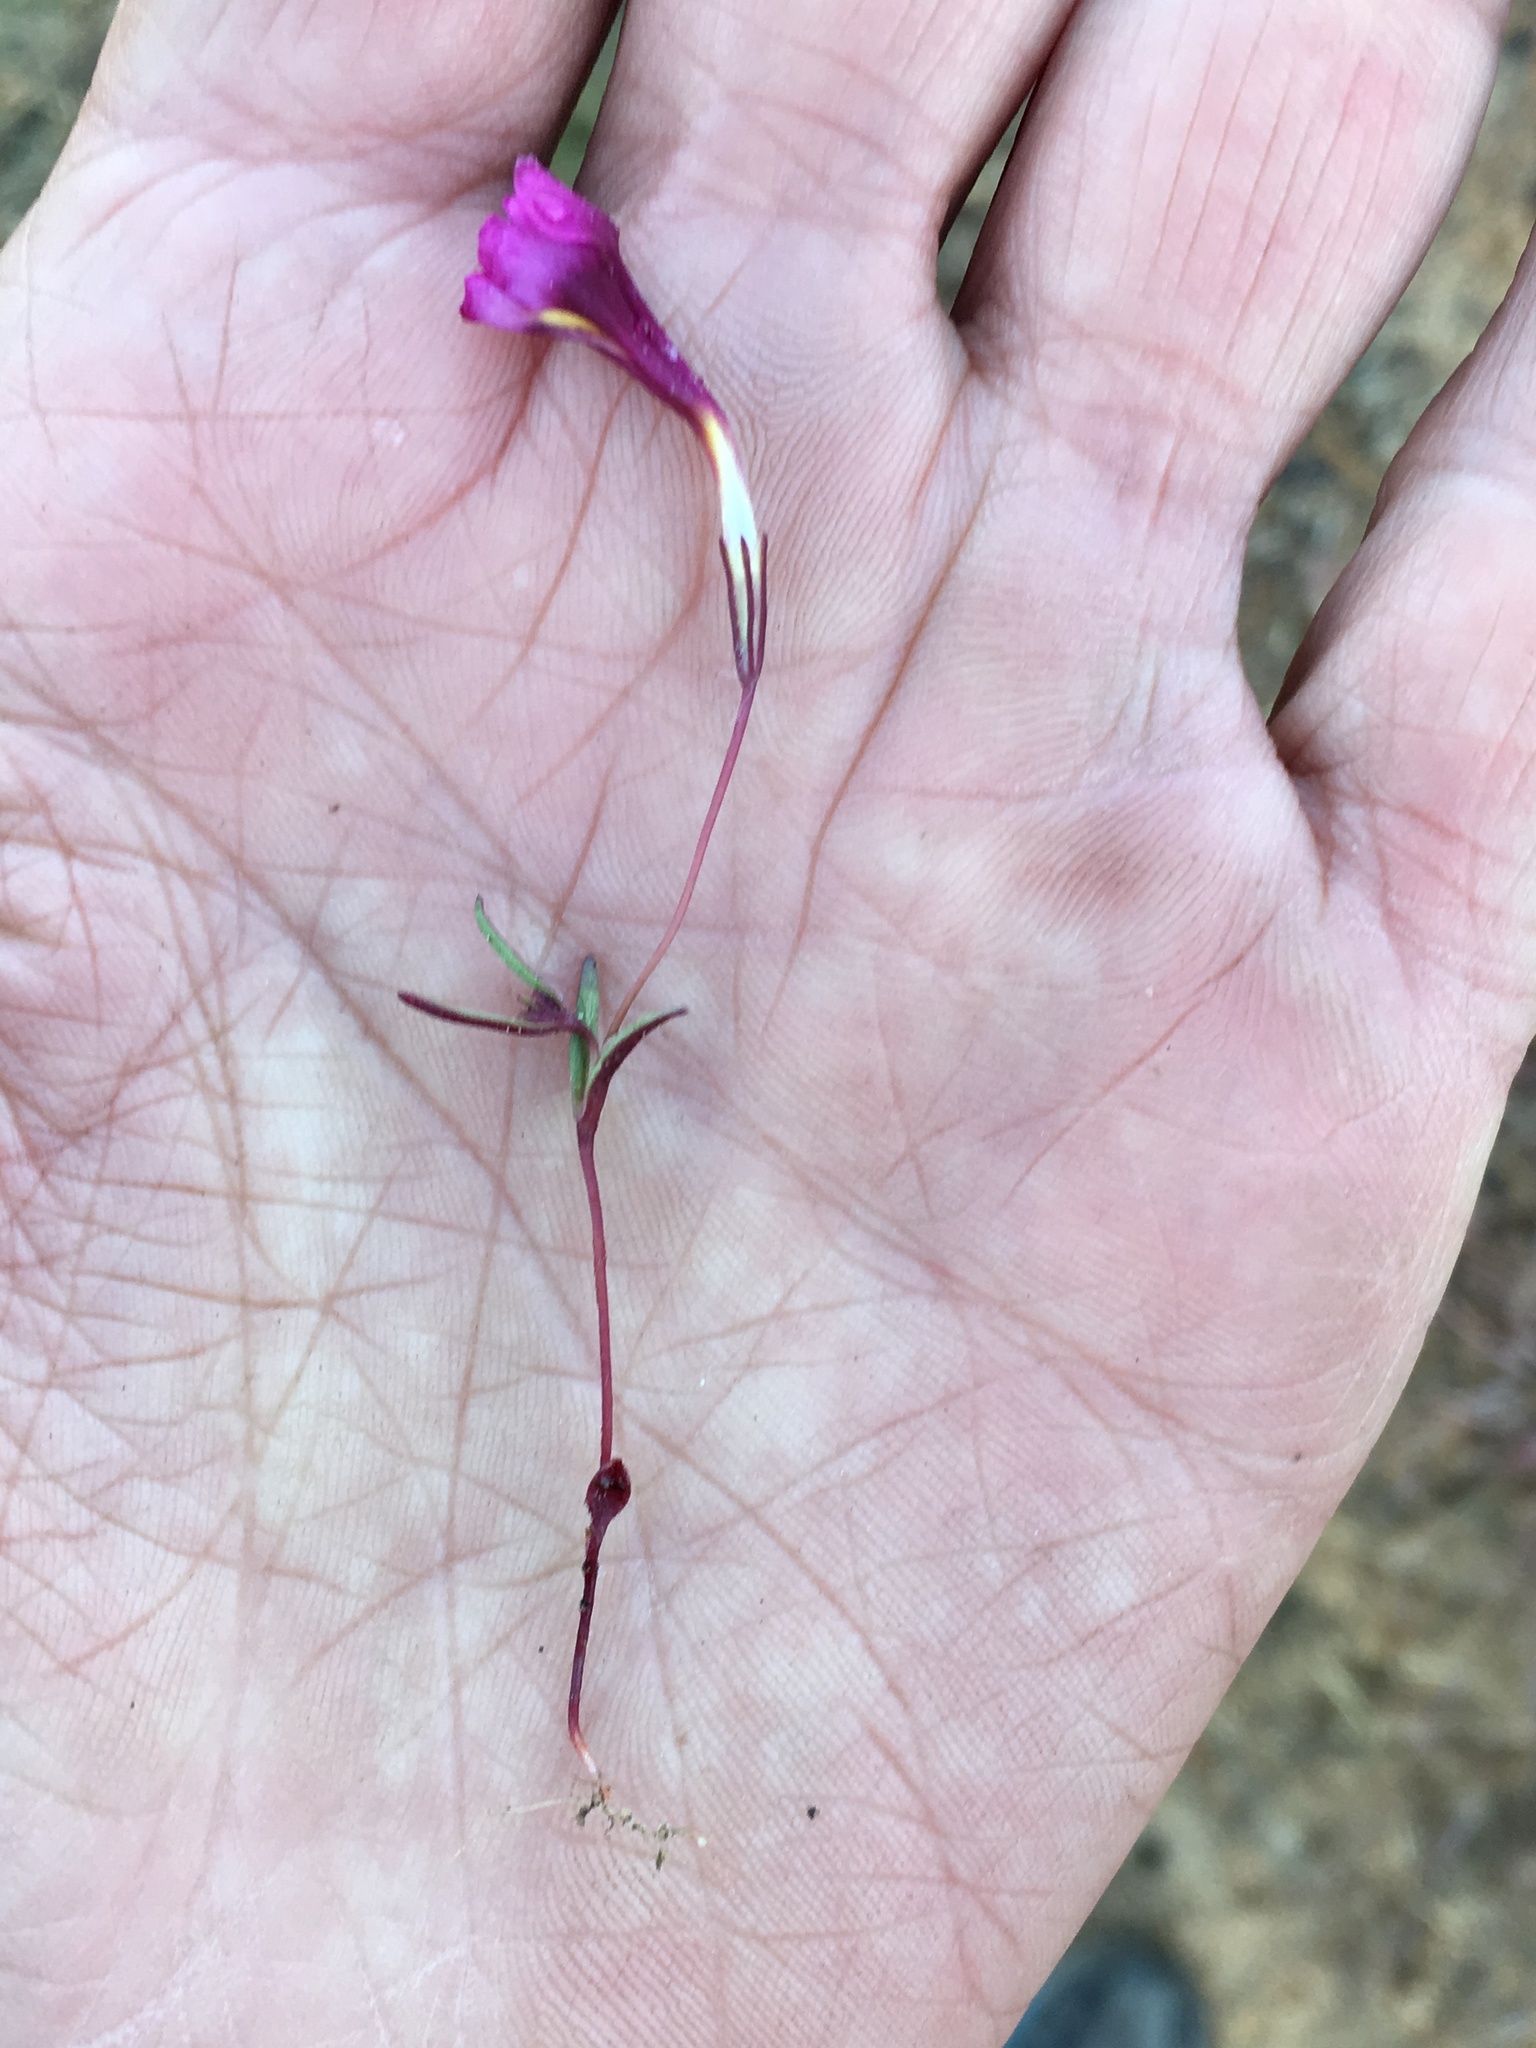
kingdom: Plantae
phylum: Tracheophyta
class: Magnoliopsida
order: Lamiales
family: Phrymaceae
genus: Erythranthe
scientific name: Erythranthe palmeri
